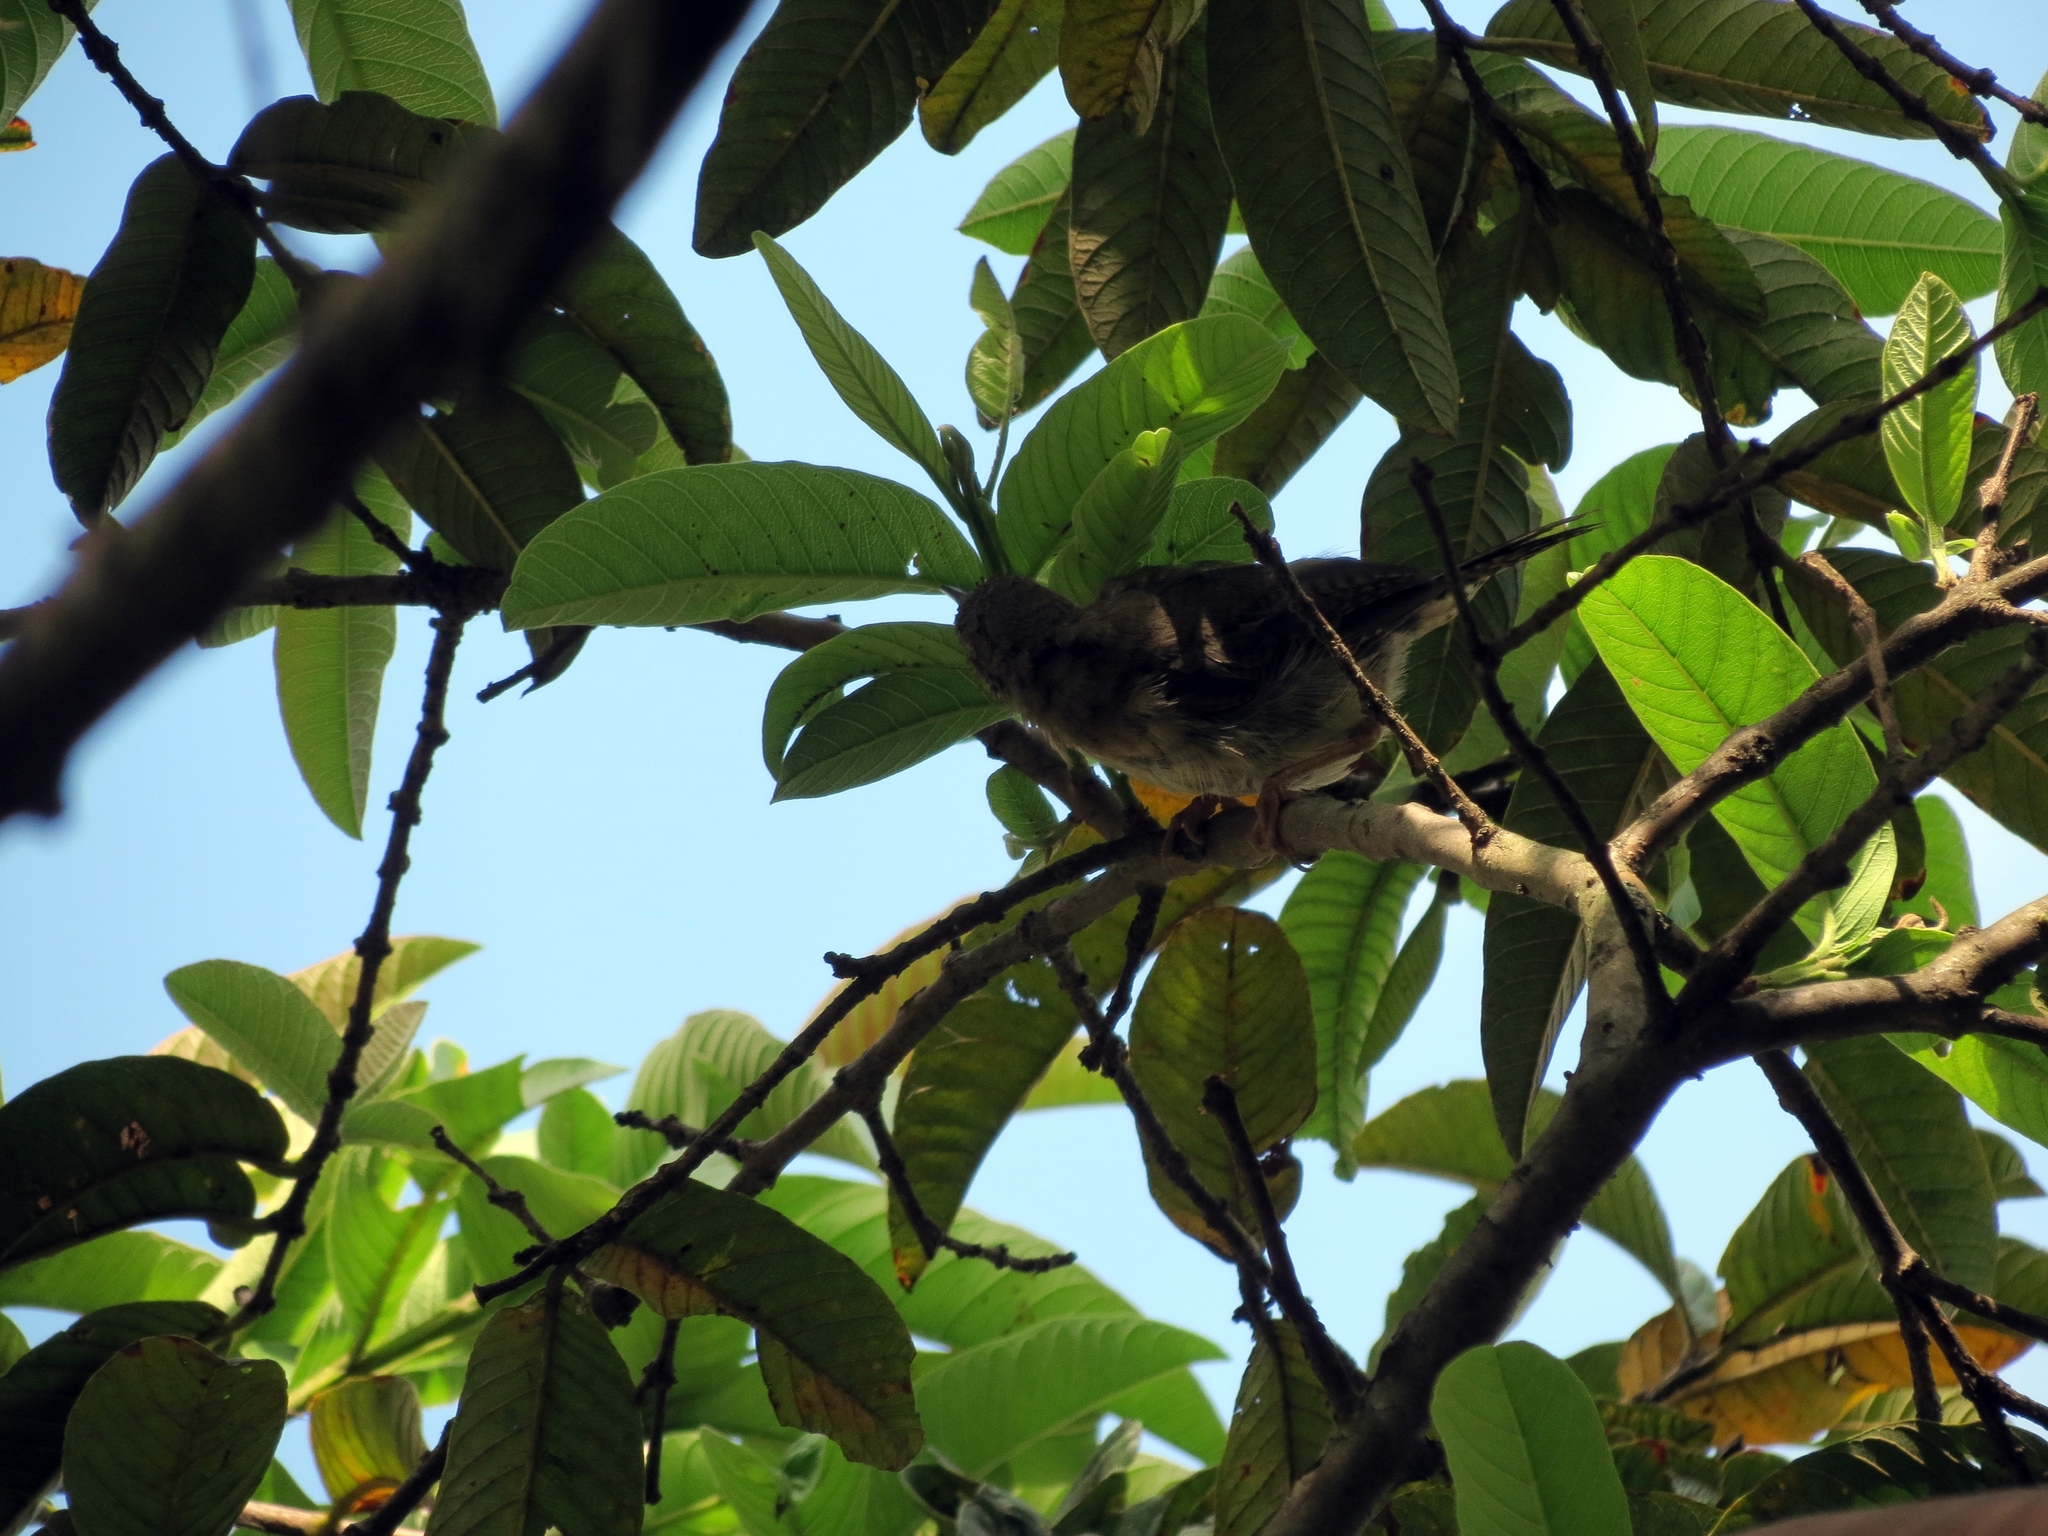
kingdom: Animalia
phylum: Chordata
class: Aves
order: Passeriformes
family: Troglodytidae
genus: Troglodytes
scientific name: Troglodytes aedon
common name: House wren
